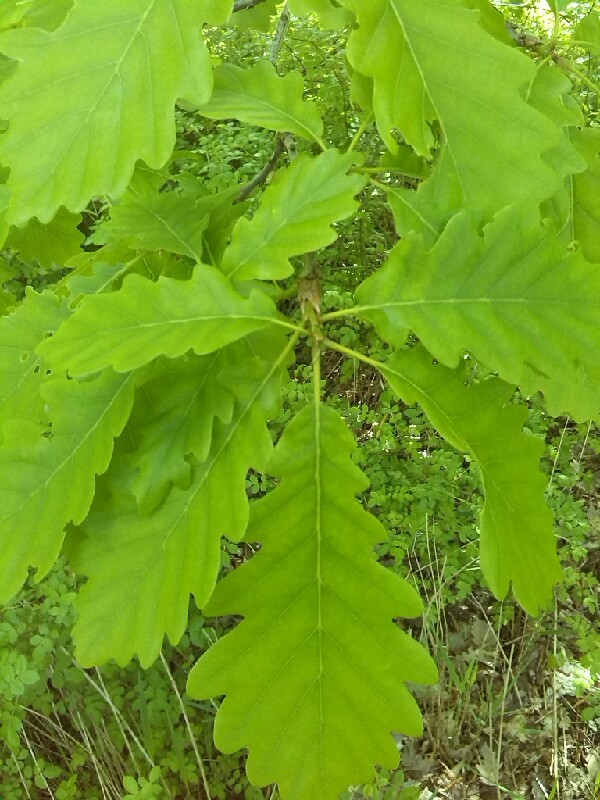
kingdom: Plantae
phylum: Tracheophyta
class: Magnoliopsida
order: Fagales
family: Fagaceae
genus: Quercus
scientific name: Quercus petraea
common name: Sessile oak
